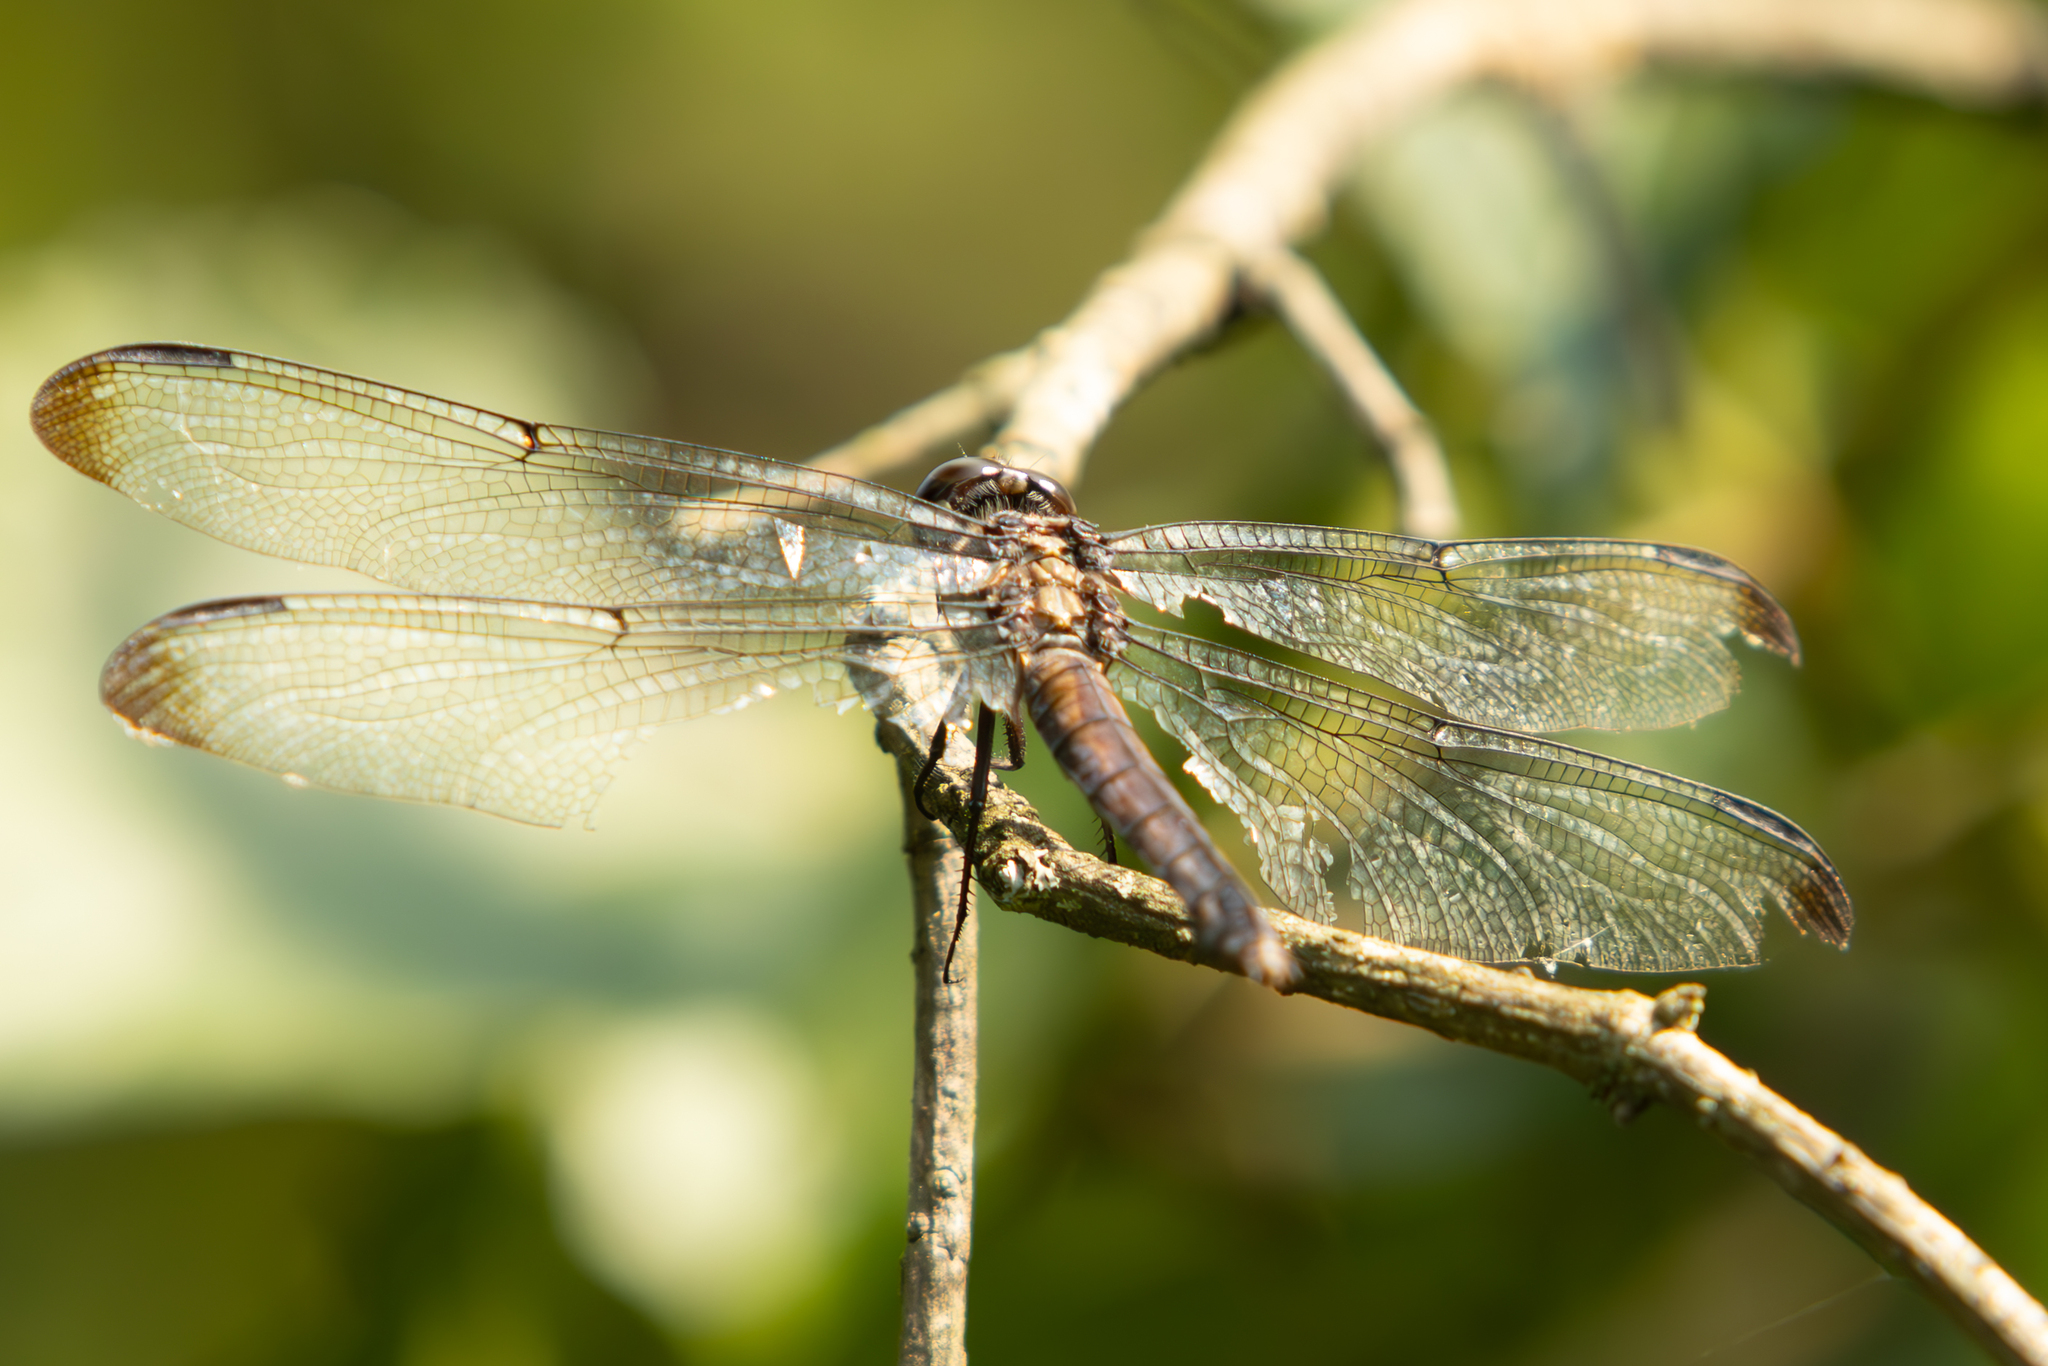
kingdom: Animalia
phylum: Arthropoda
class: Insecta
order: Odonata
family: Libellulidae
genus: Libellula
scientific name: Libellula vibrans
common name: Great blue skimmer
